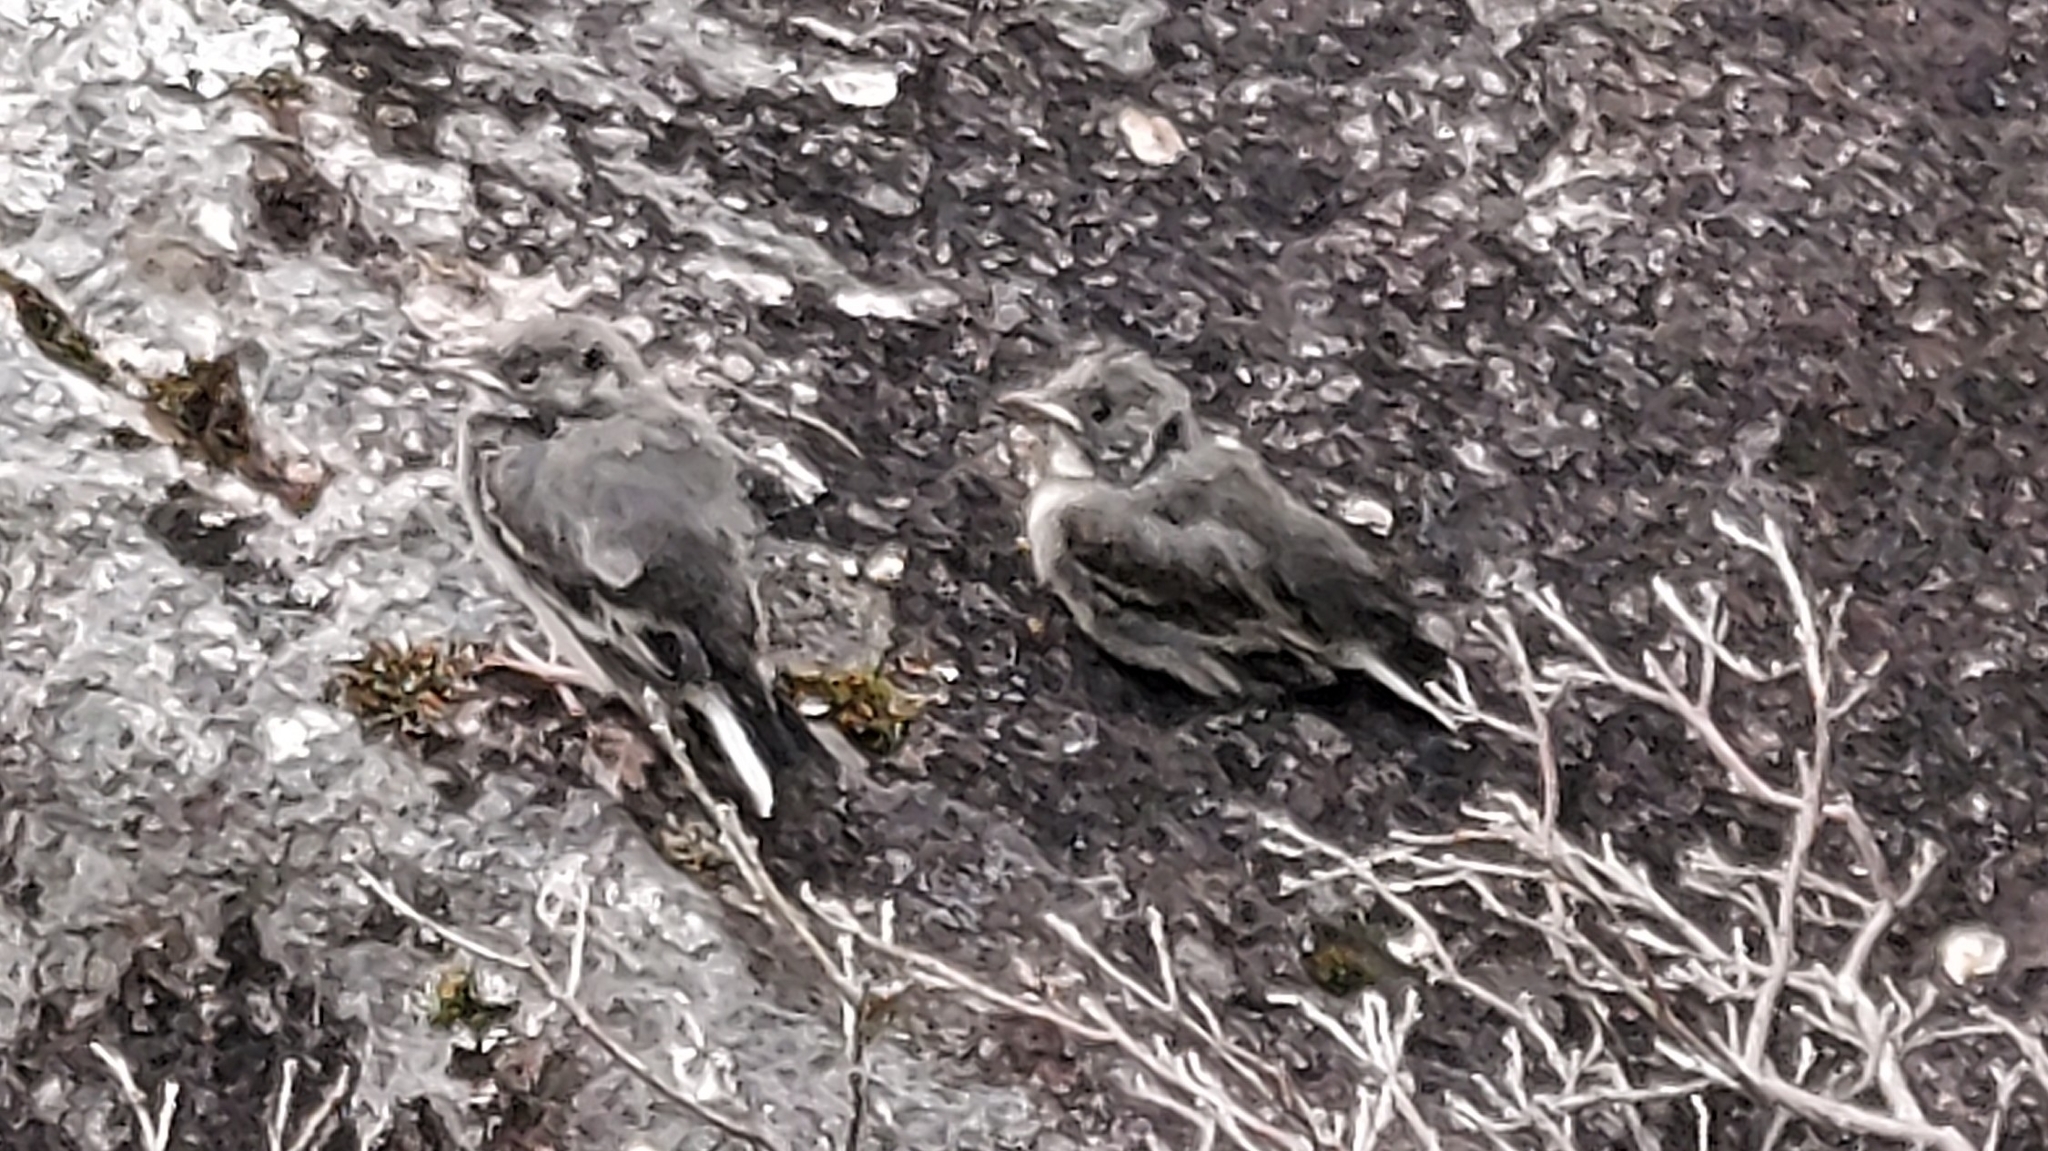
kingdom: Animalia
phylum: Chordata
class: Aves
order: Passeriformes
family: Motacillidae
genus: Motacilla
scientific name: Motacilla alba
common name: White wagtail
